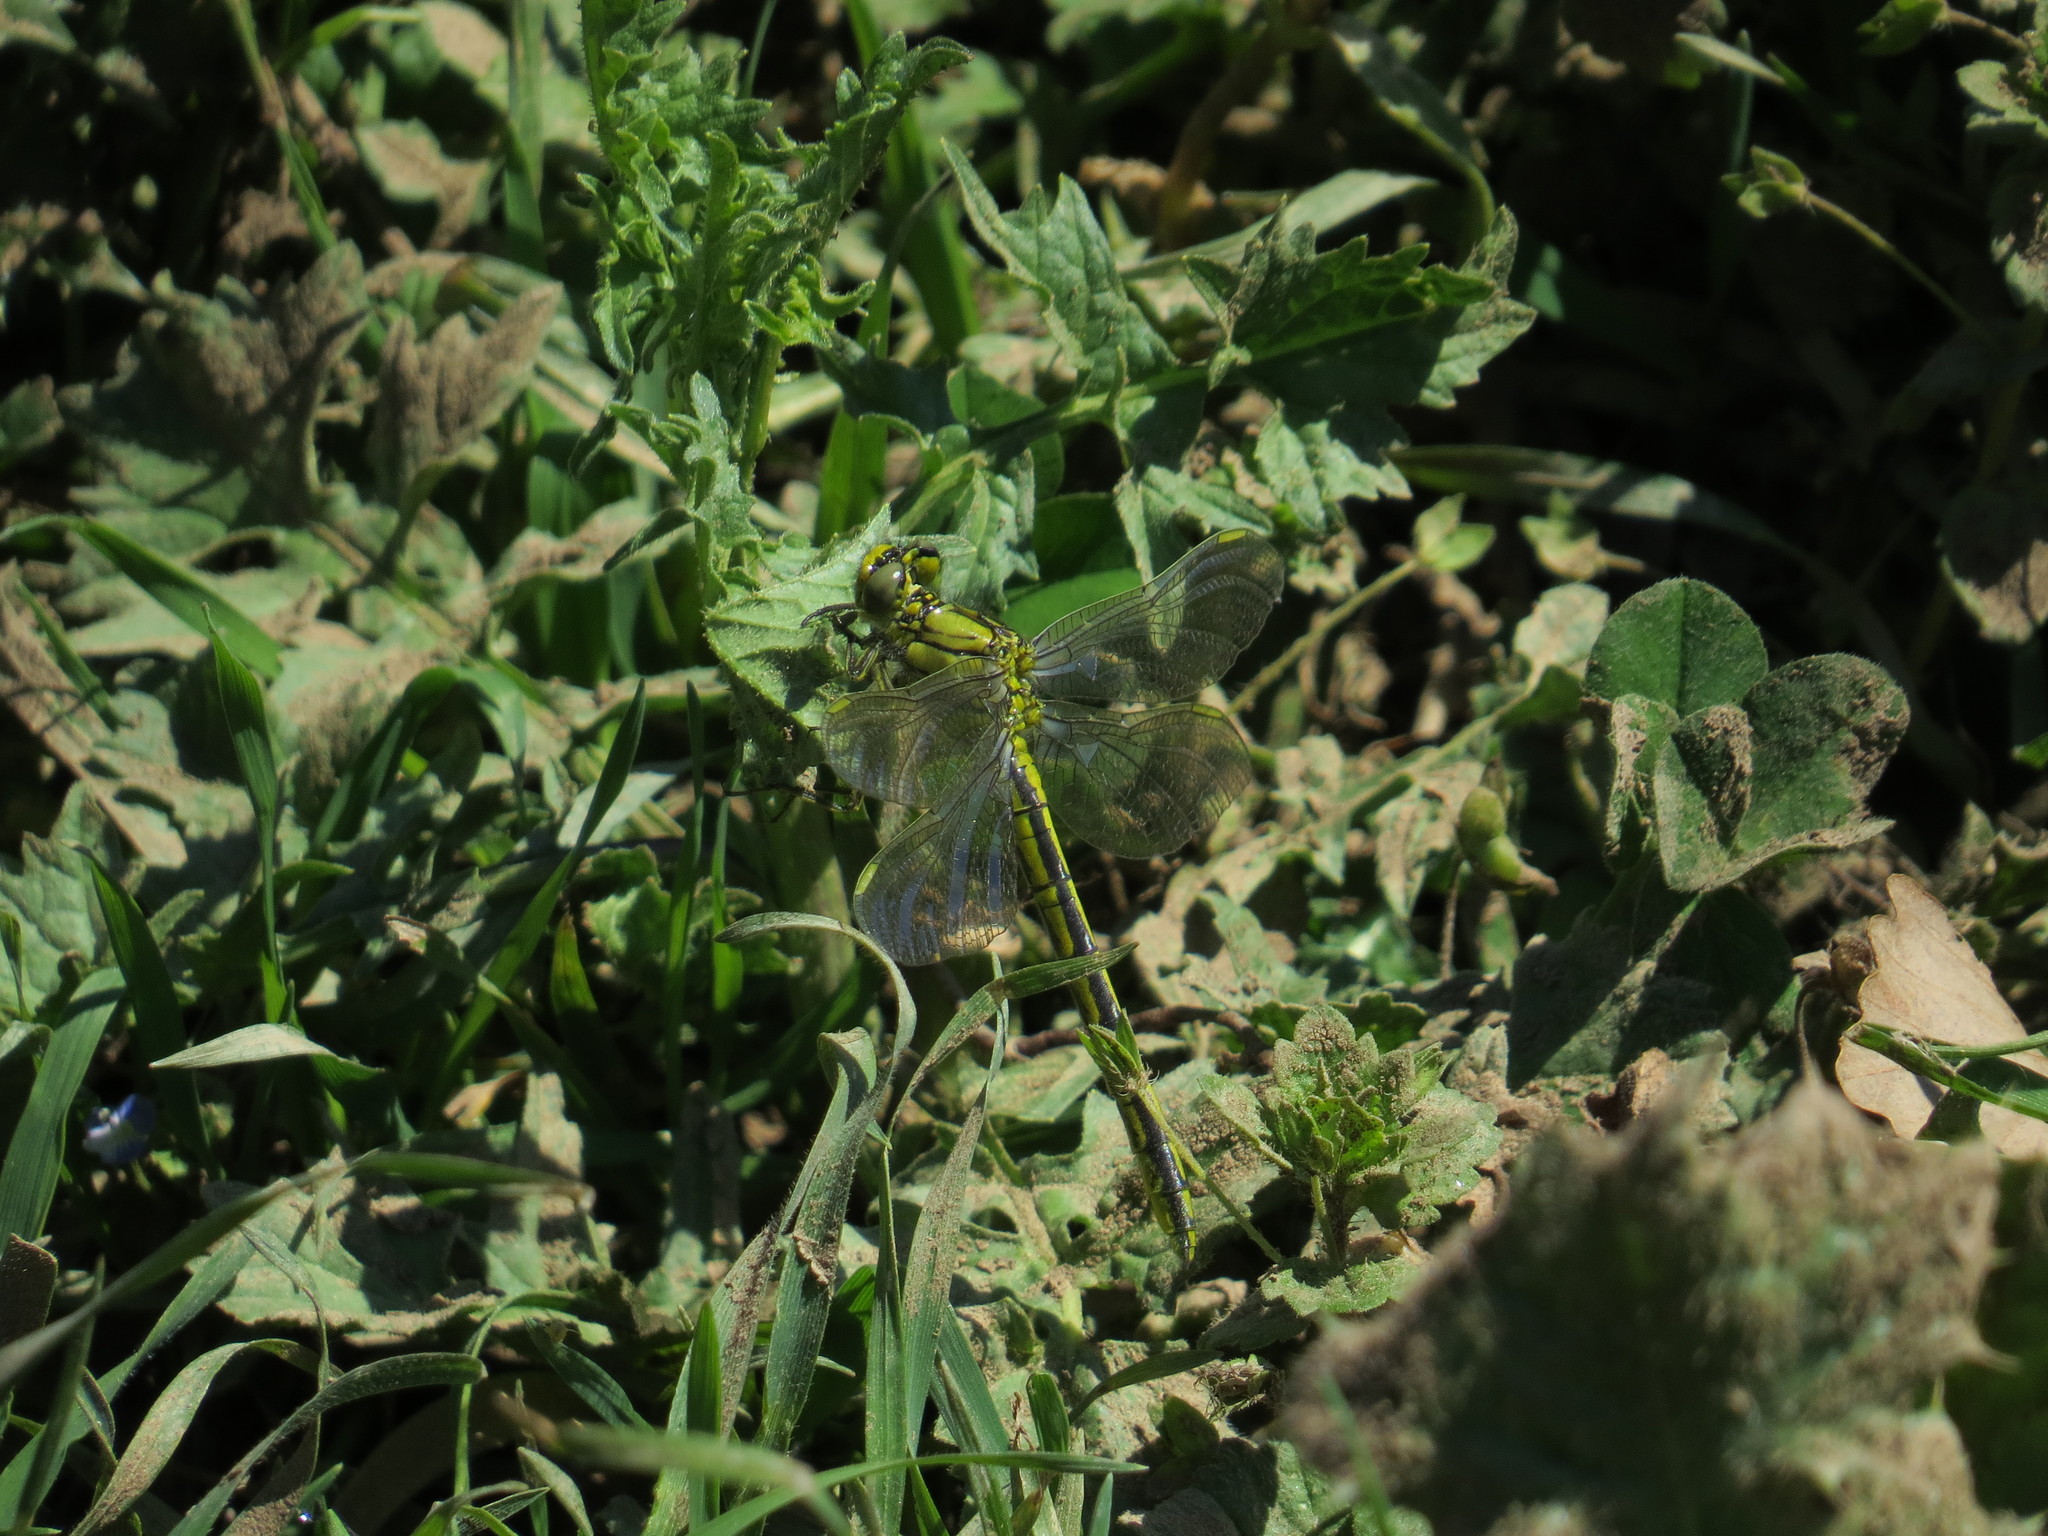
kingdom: Animalia
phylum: Arthropoda
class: Insecta
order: Odonata
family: Gomphidae
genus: Gomphus
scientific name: Gomphus pulchellus
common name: Western clubtail
